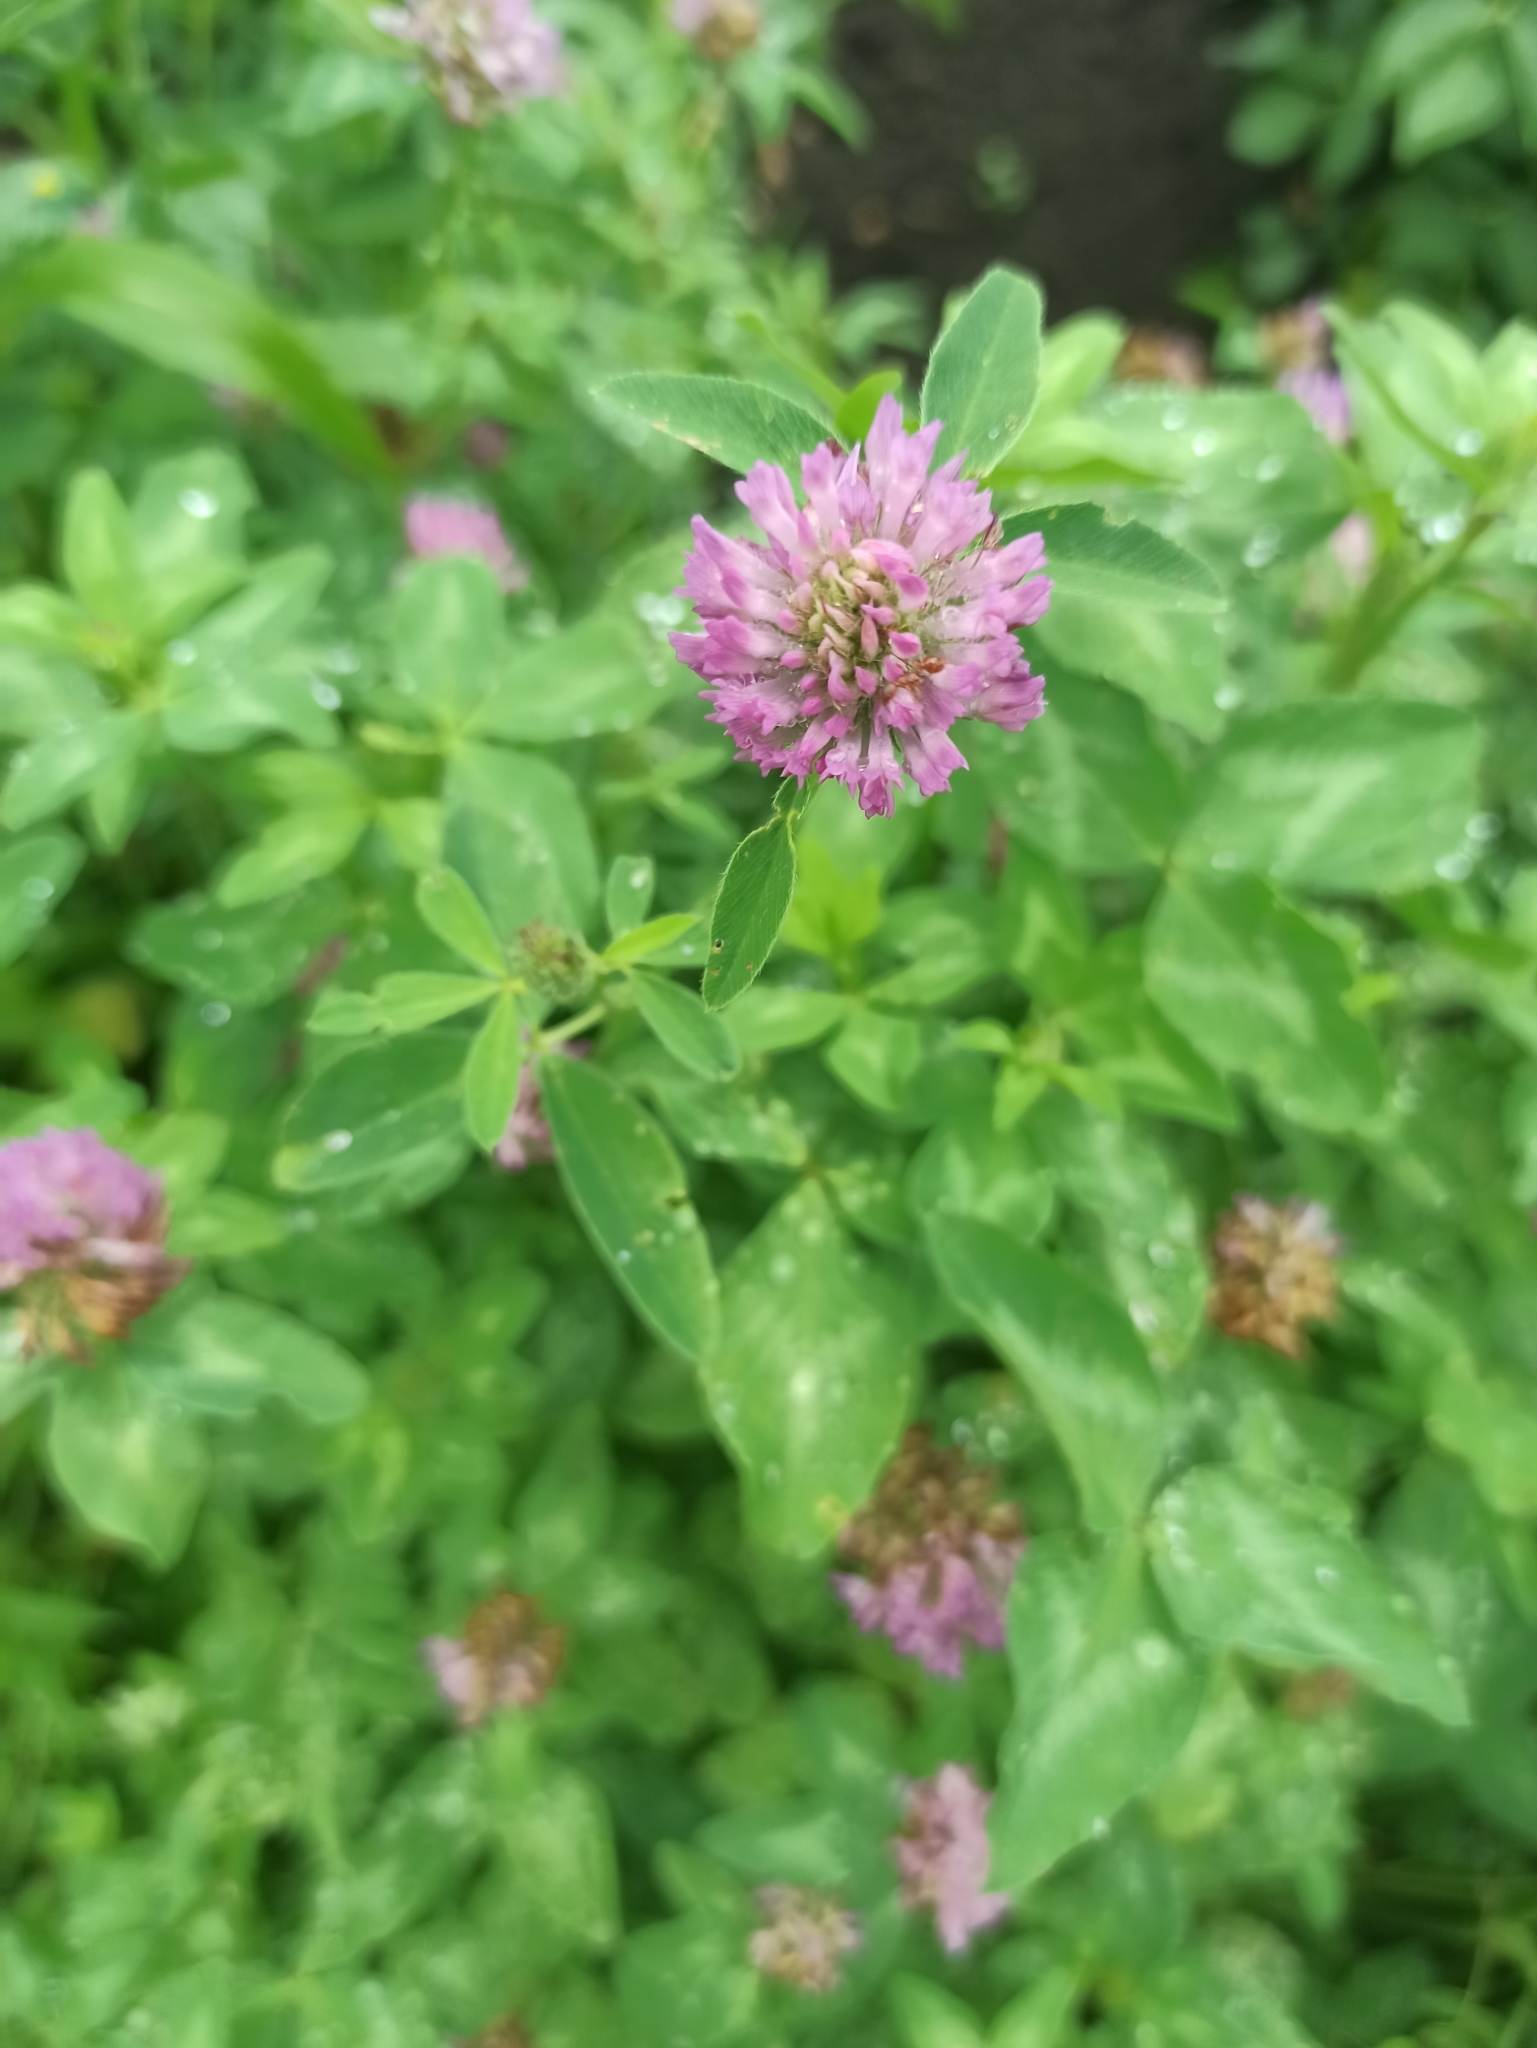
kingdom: Plantae
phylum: Tracheophyta
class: Magnoliopsida
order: Fabales
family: Fabaceae
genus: Trifolium
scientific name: Trifolium pratense
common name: Red clover
